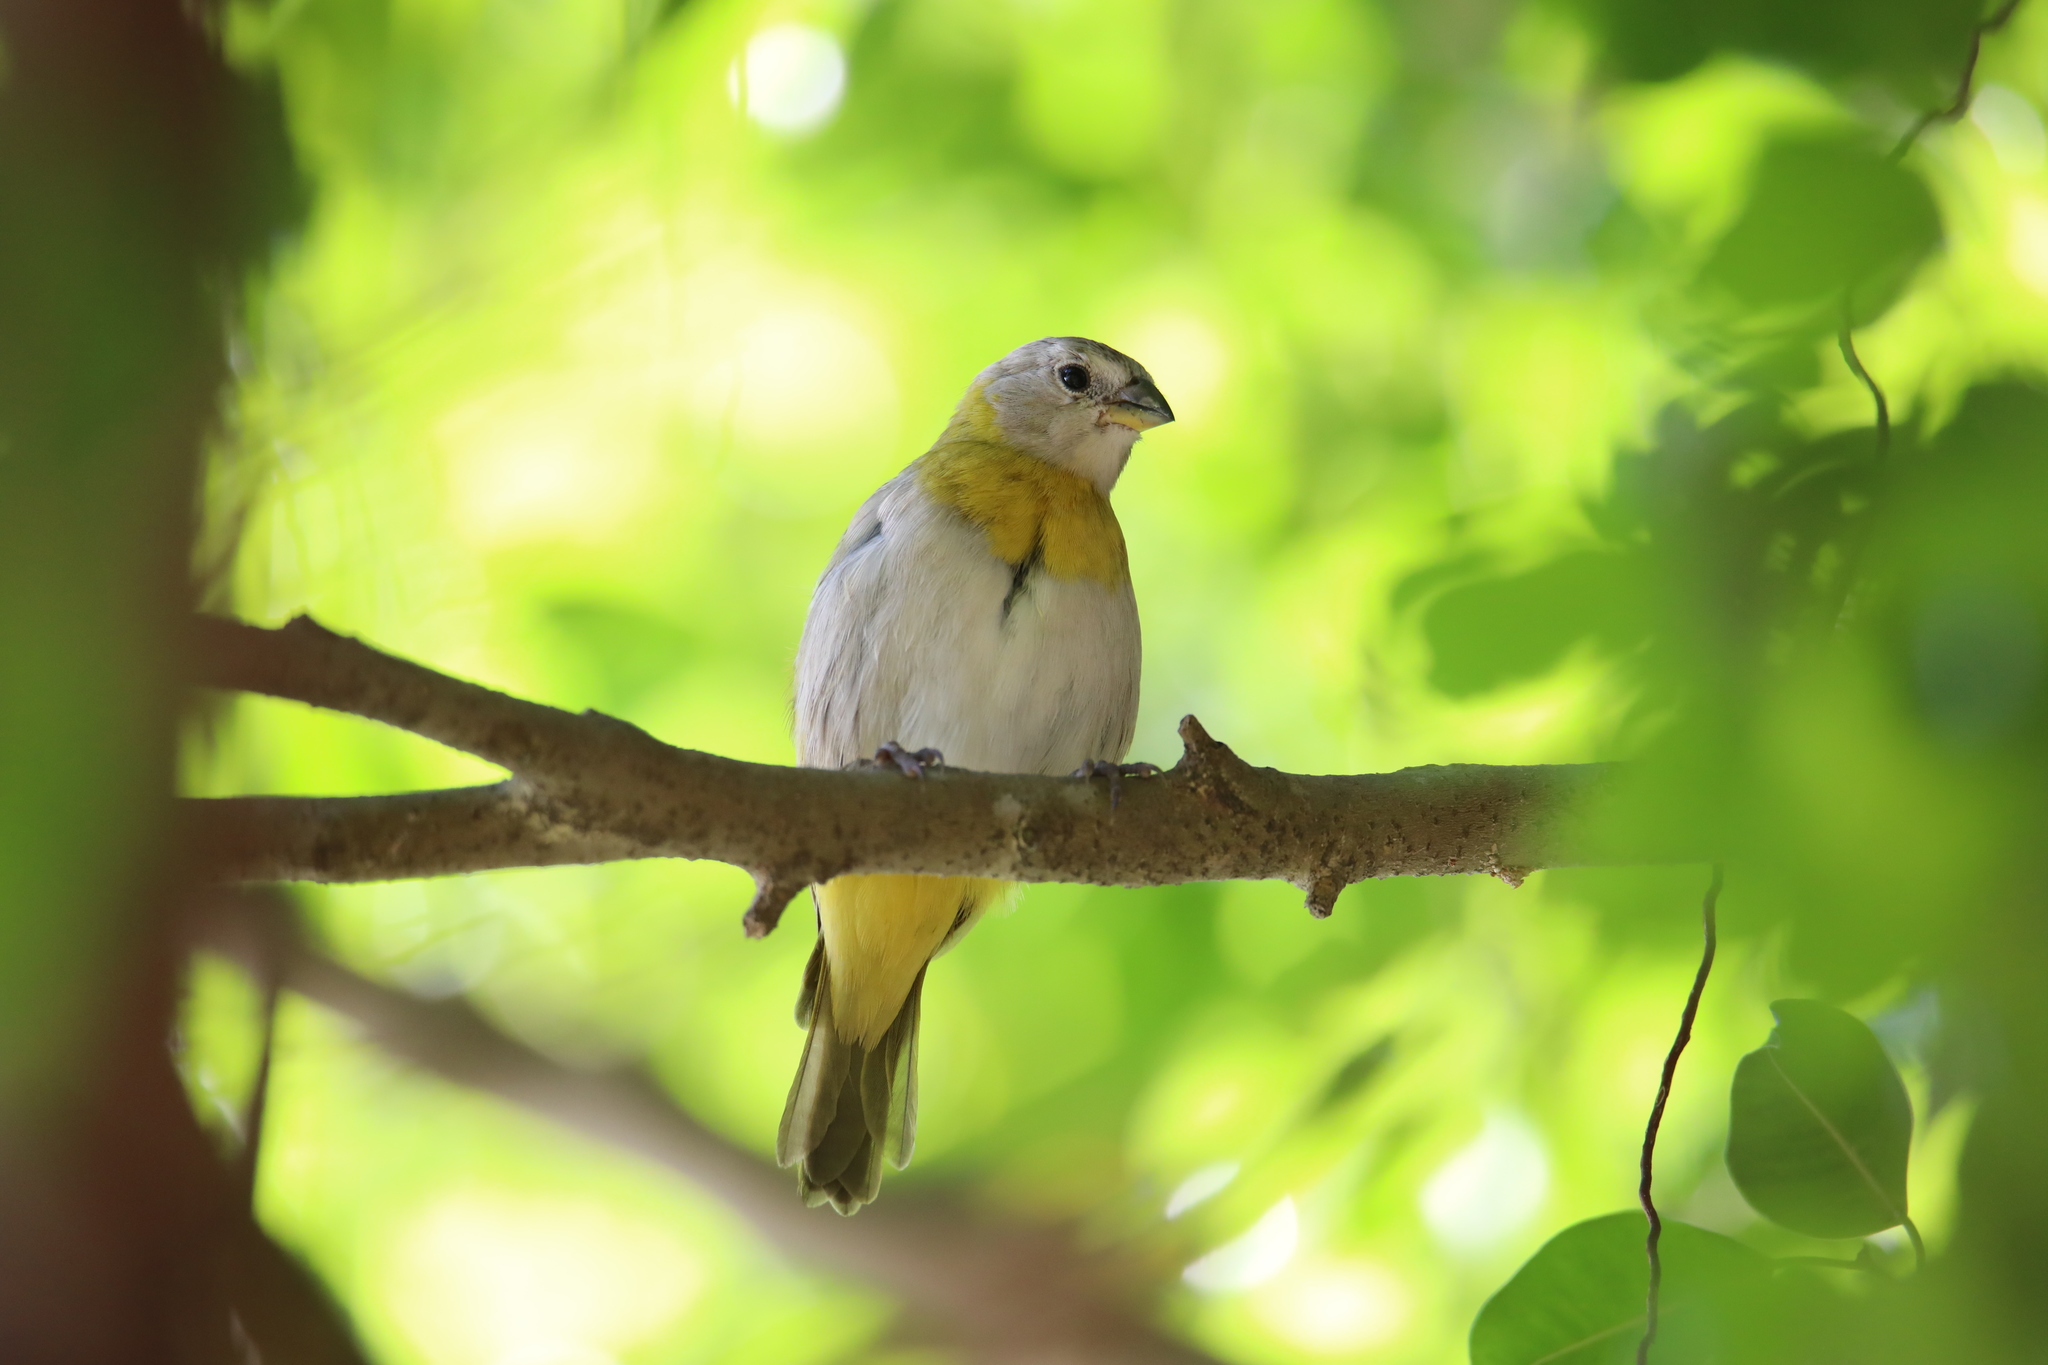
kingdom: Animalia
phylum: Chordata
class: Aves
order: Passeriformes
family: Thraupidae
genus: Sicalis
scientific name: Sicalis flaveola
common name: Saffron finch
